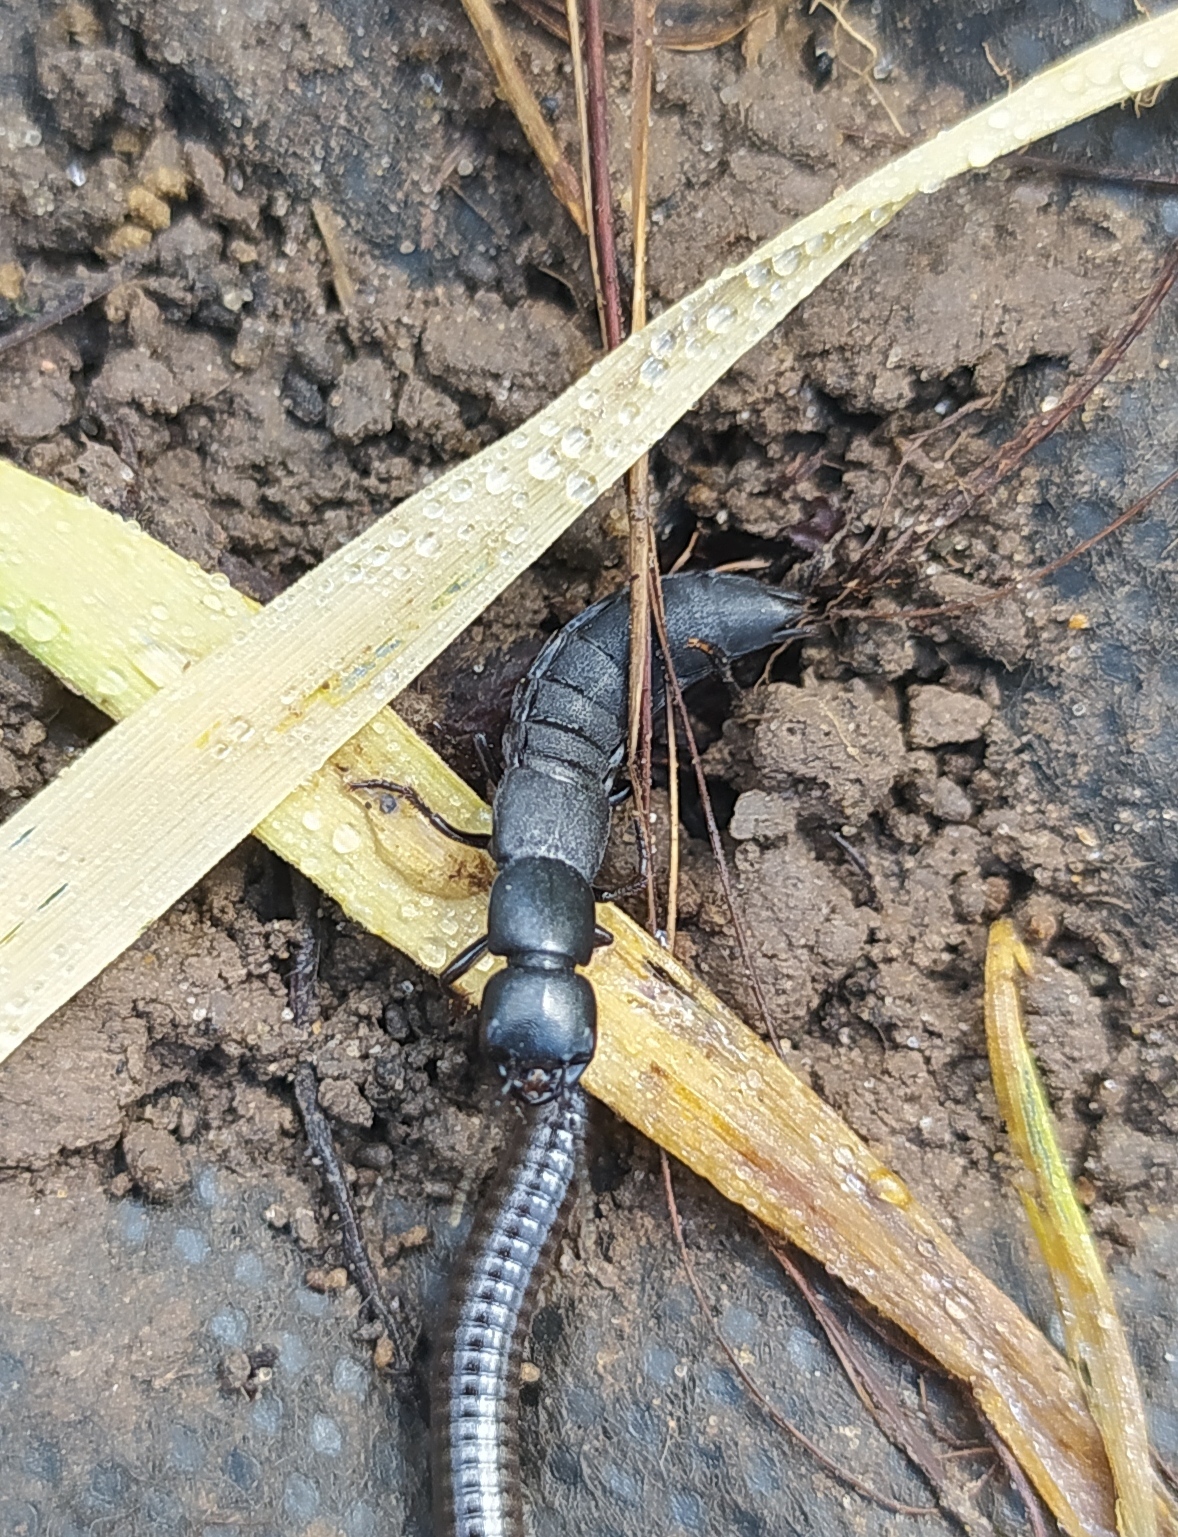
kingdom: Animalia
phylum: Arthropoda
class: Insecta
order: Coleoptera
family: Staphylinidae
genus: Ocypus
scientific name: Ocypus nitens
